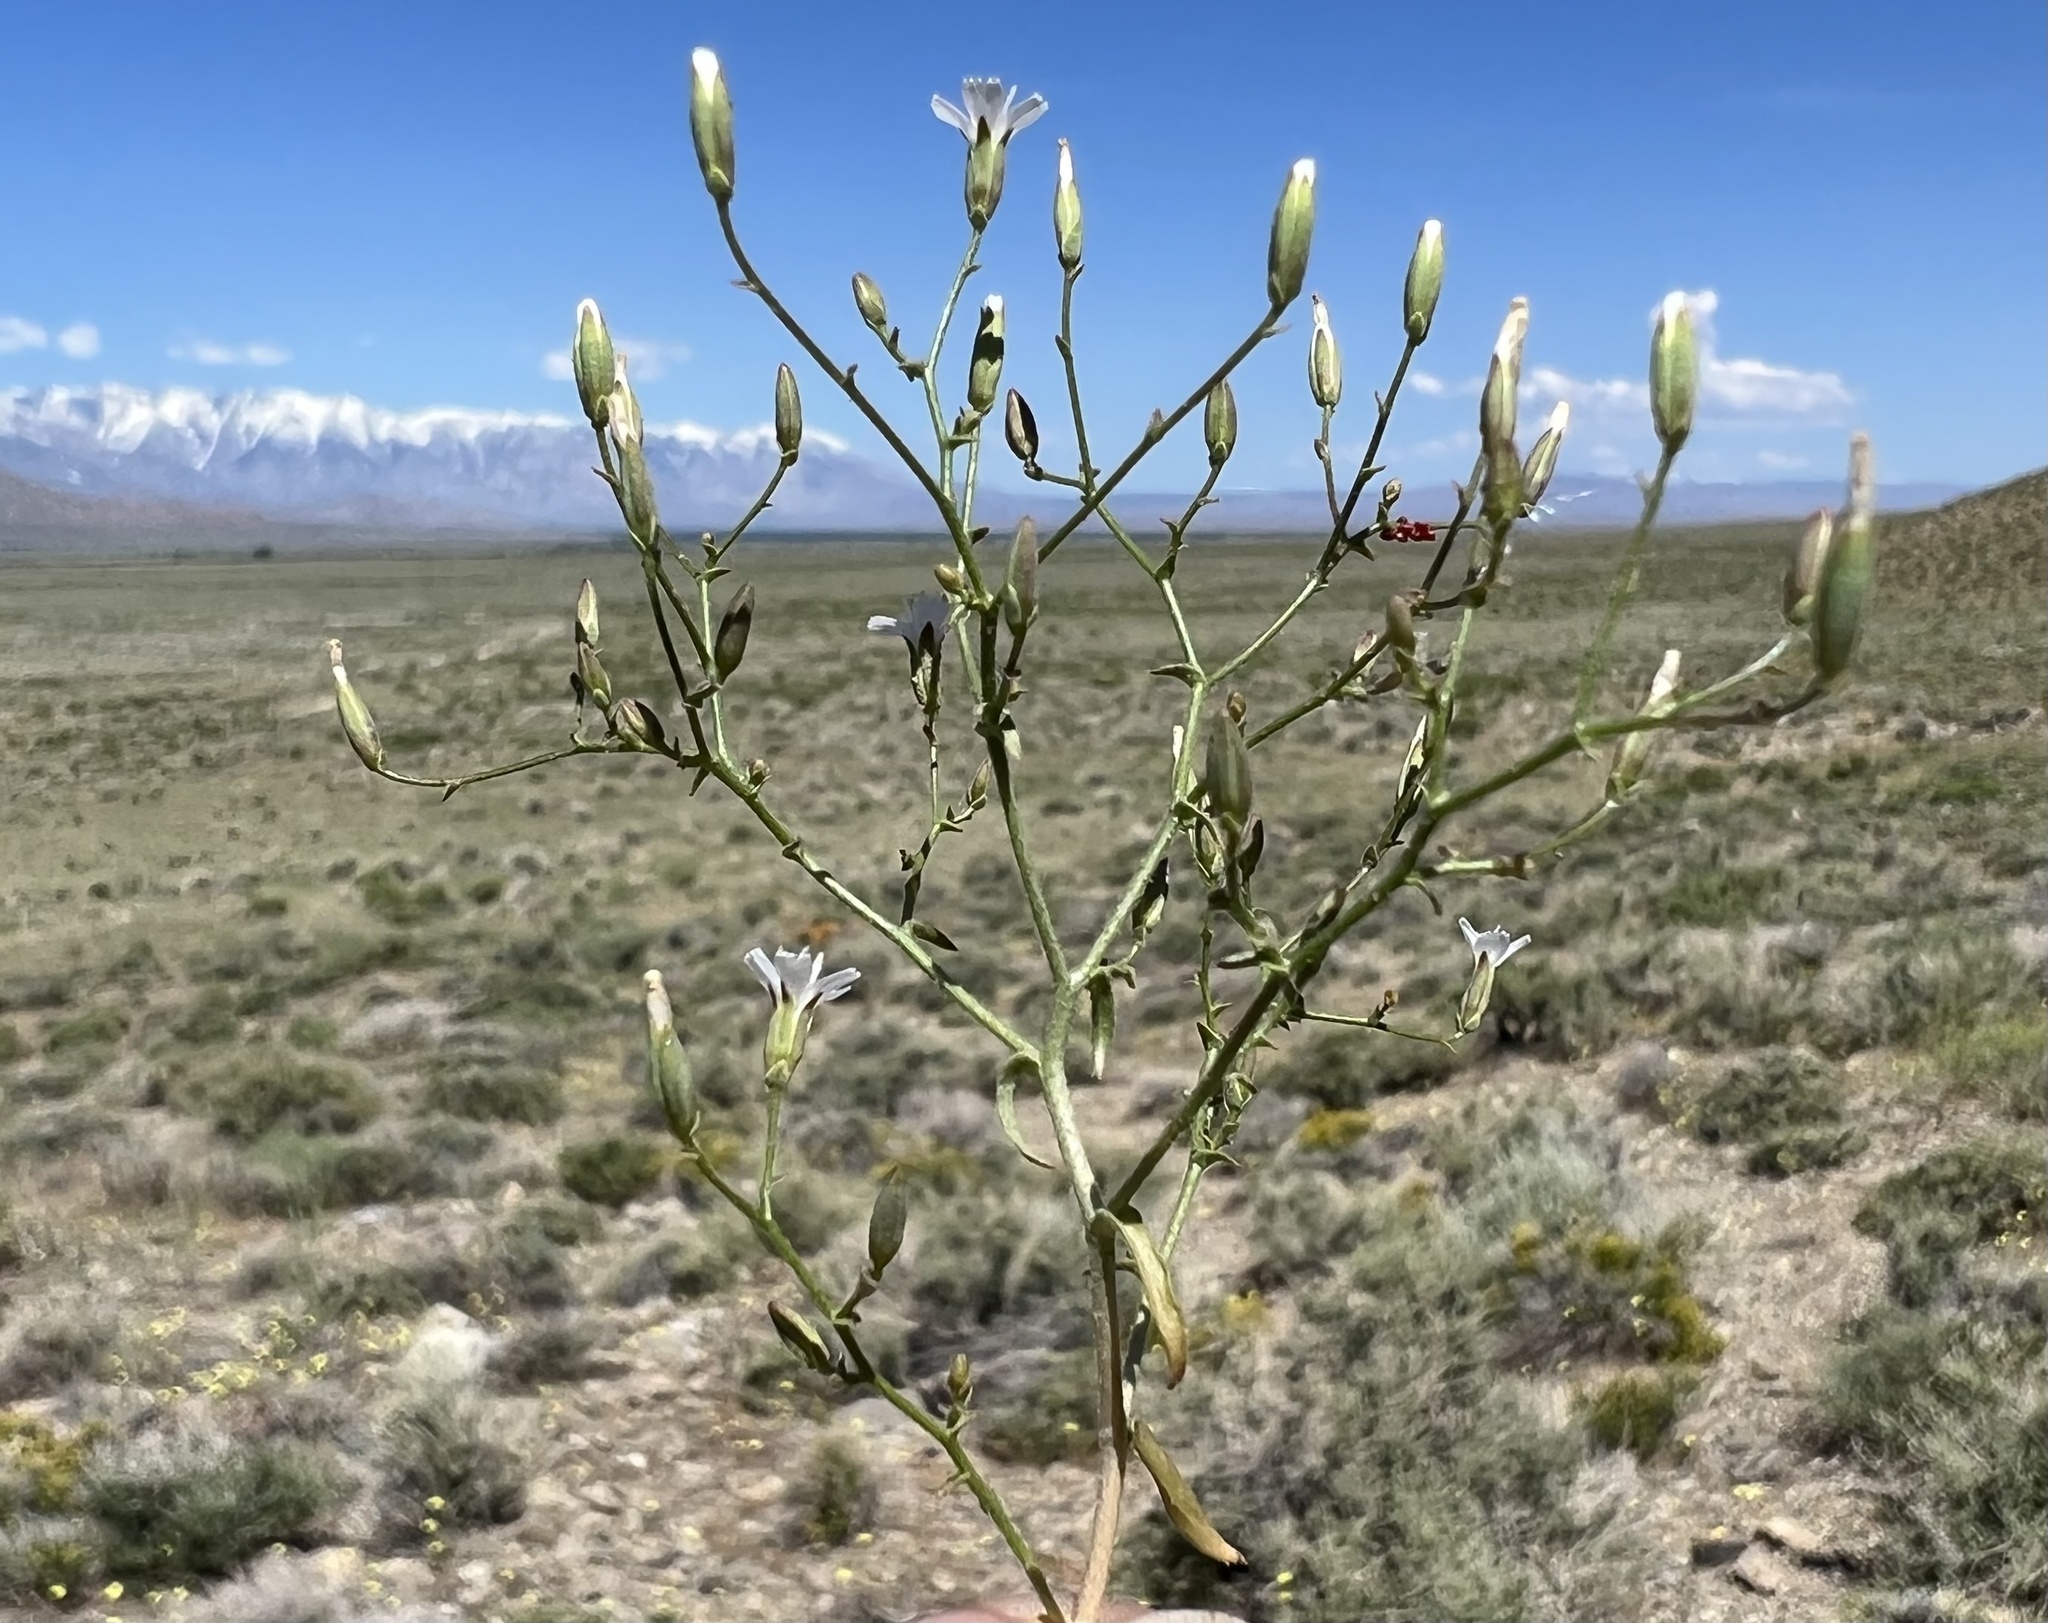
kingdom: Plantae
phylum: Tracheophyta
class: Magnoliopsida
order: Asterales
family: Asteraceae
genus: Lygodesmia
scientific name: Lygodesmia exigua
